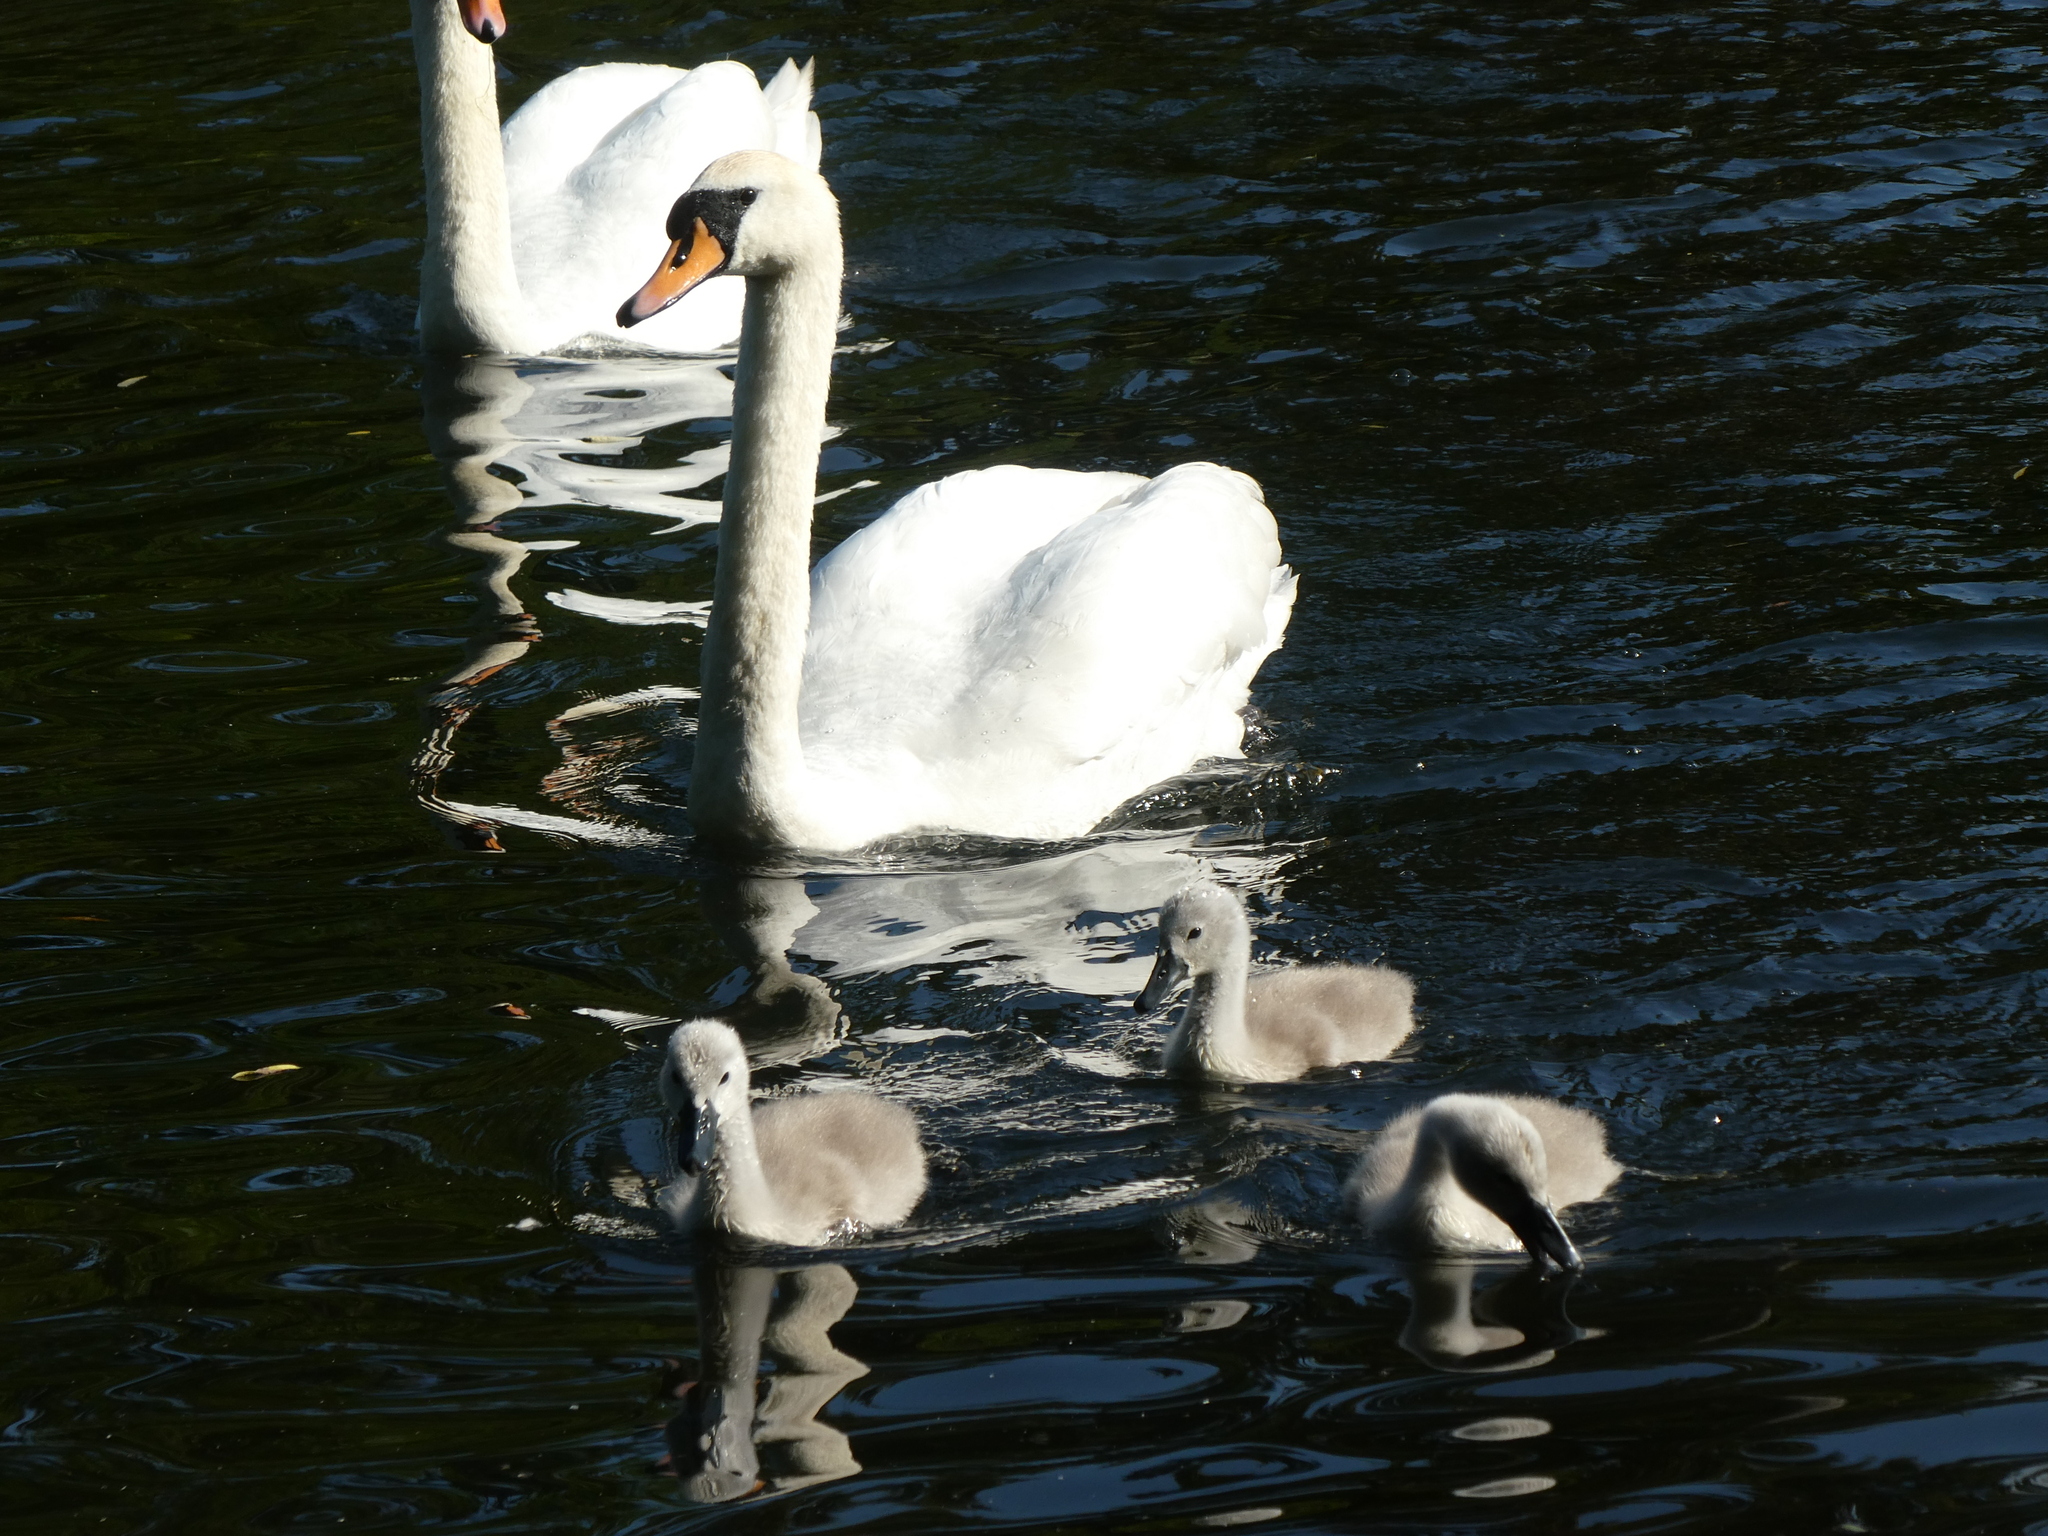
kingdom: Animalia
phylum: Chordata
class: Aves
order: Anseriformes
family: Anatidae
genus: Cygnus
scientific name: Cygnus olor
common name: Mute swan
